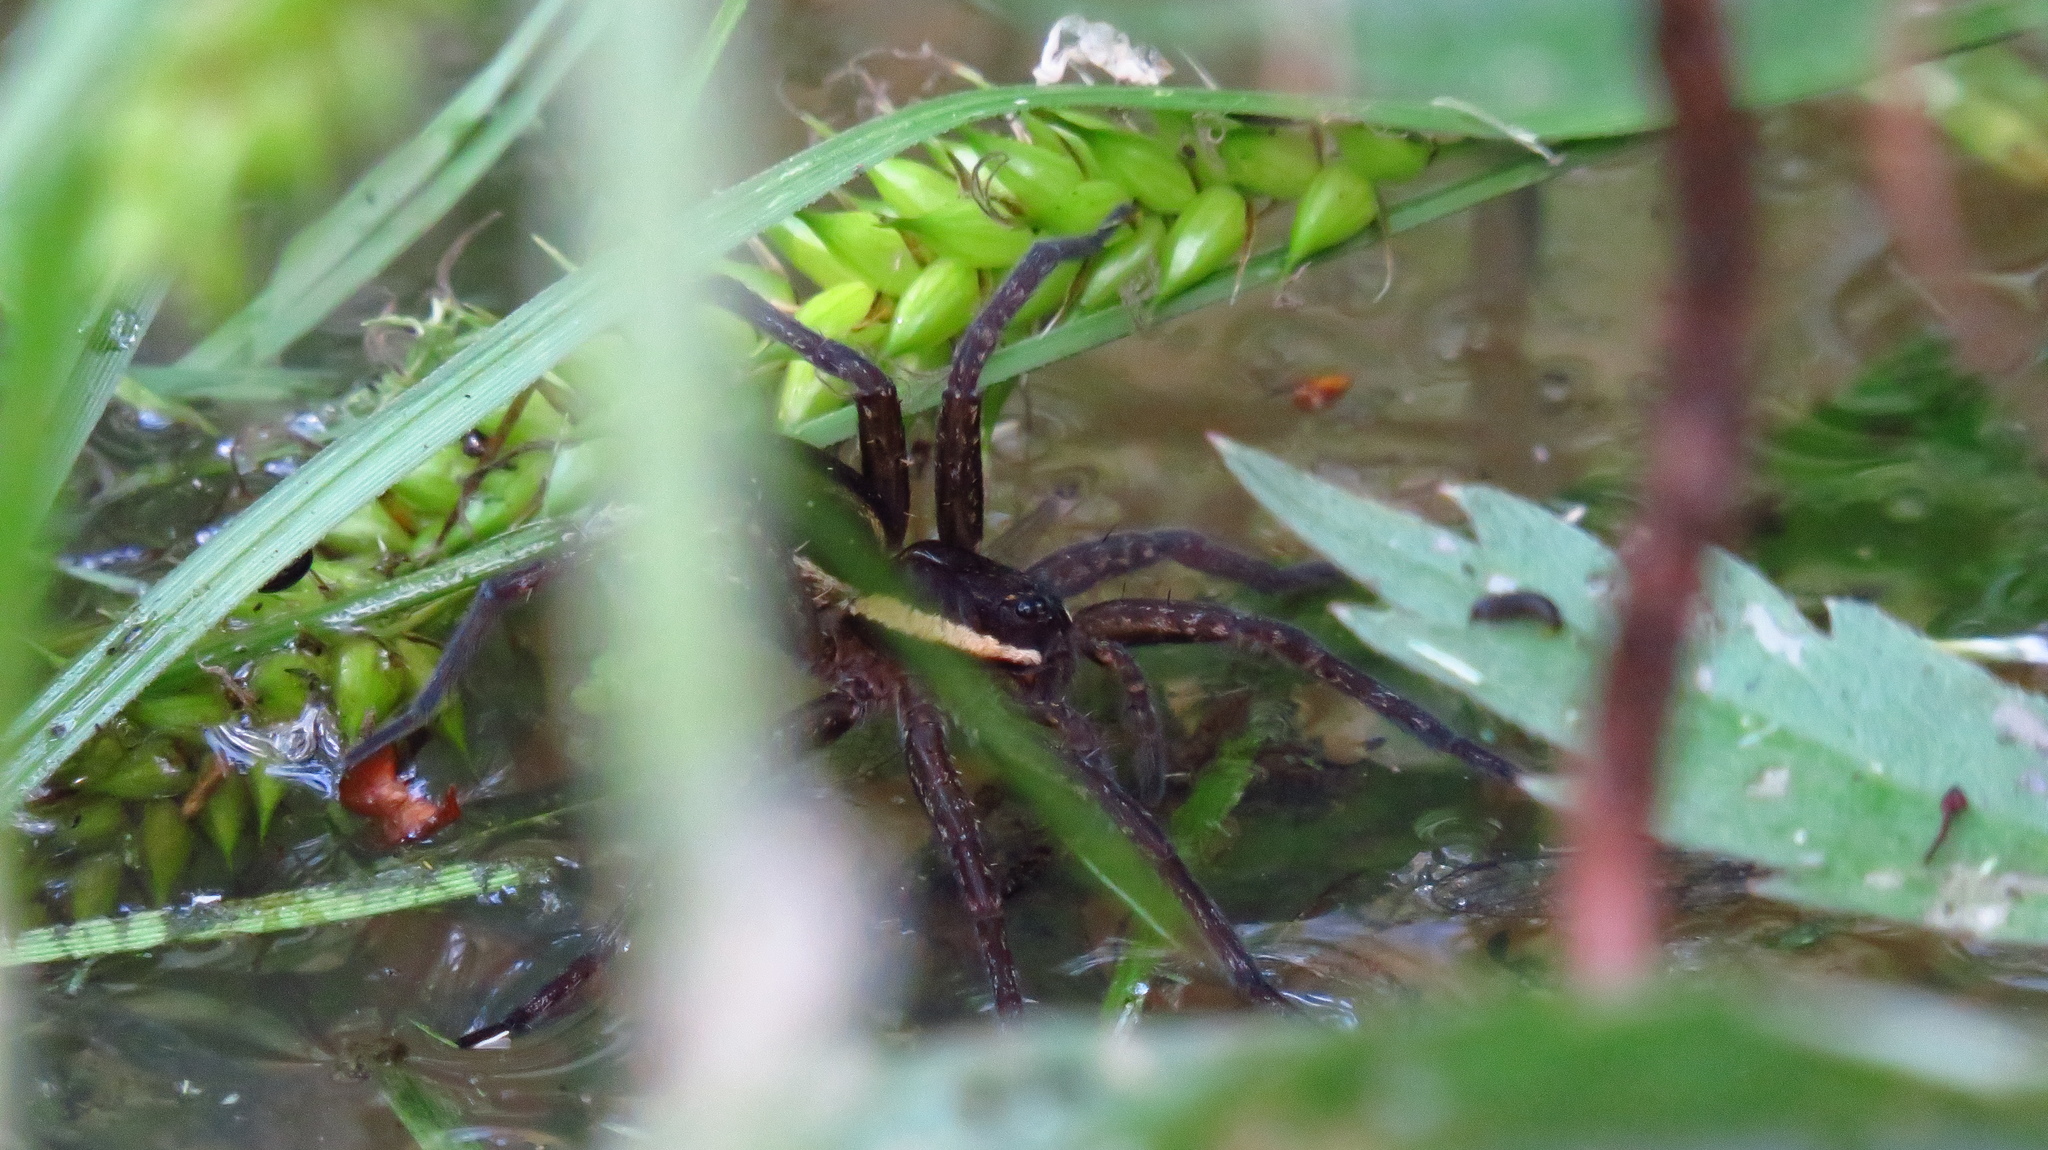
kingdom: Animalia
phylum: Arthropoda
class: Arachnida
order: Araneae
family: Pisauridae
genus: Dolomedes
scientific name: Dolomedes fimbriatus
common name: Raft spider
